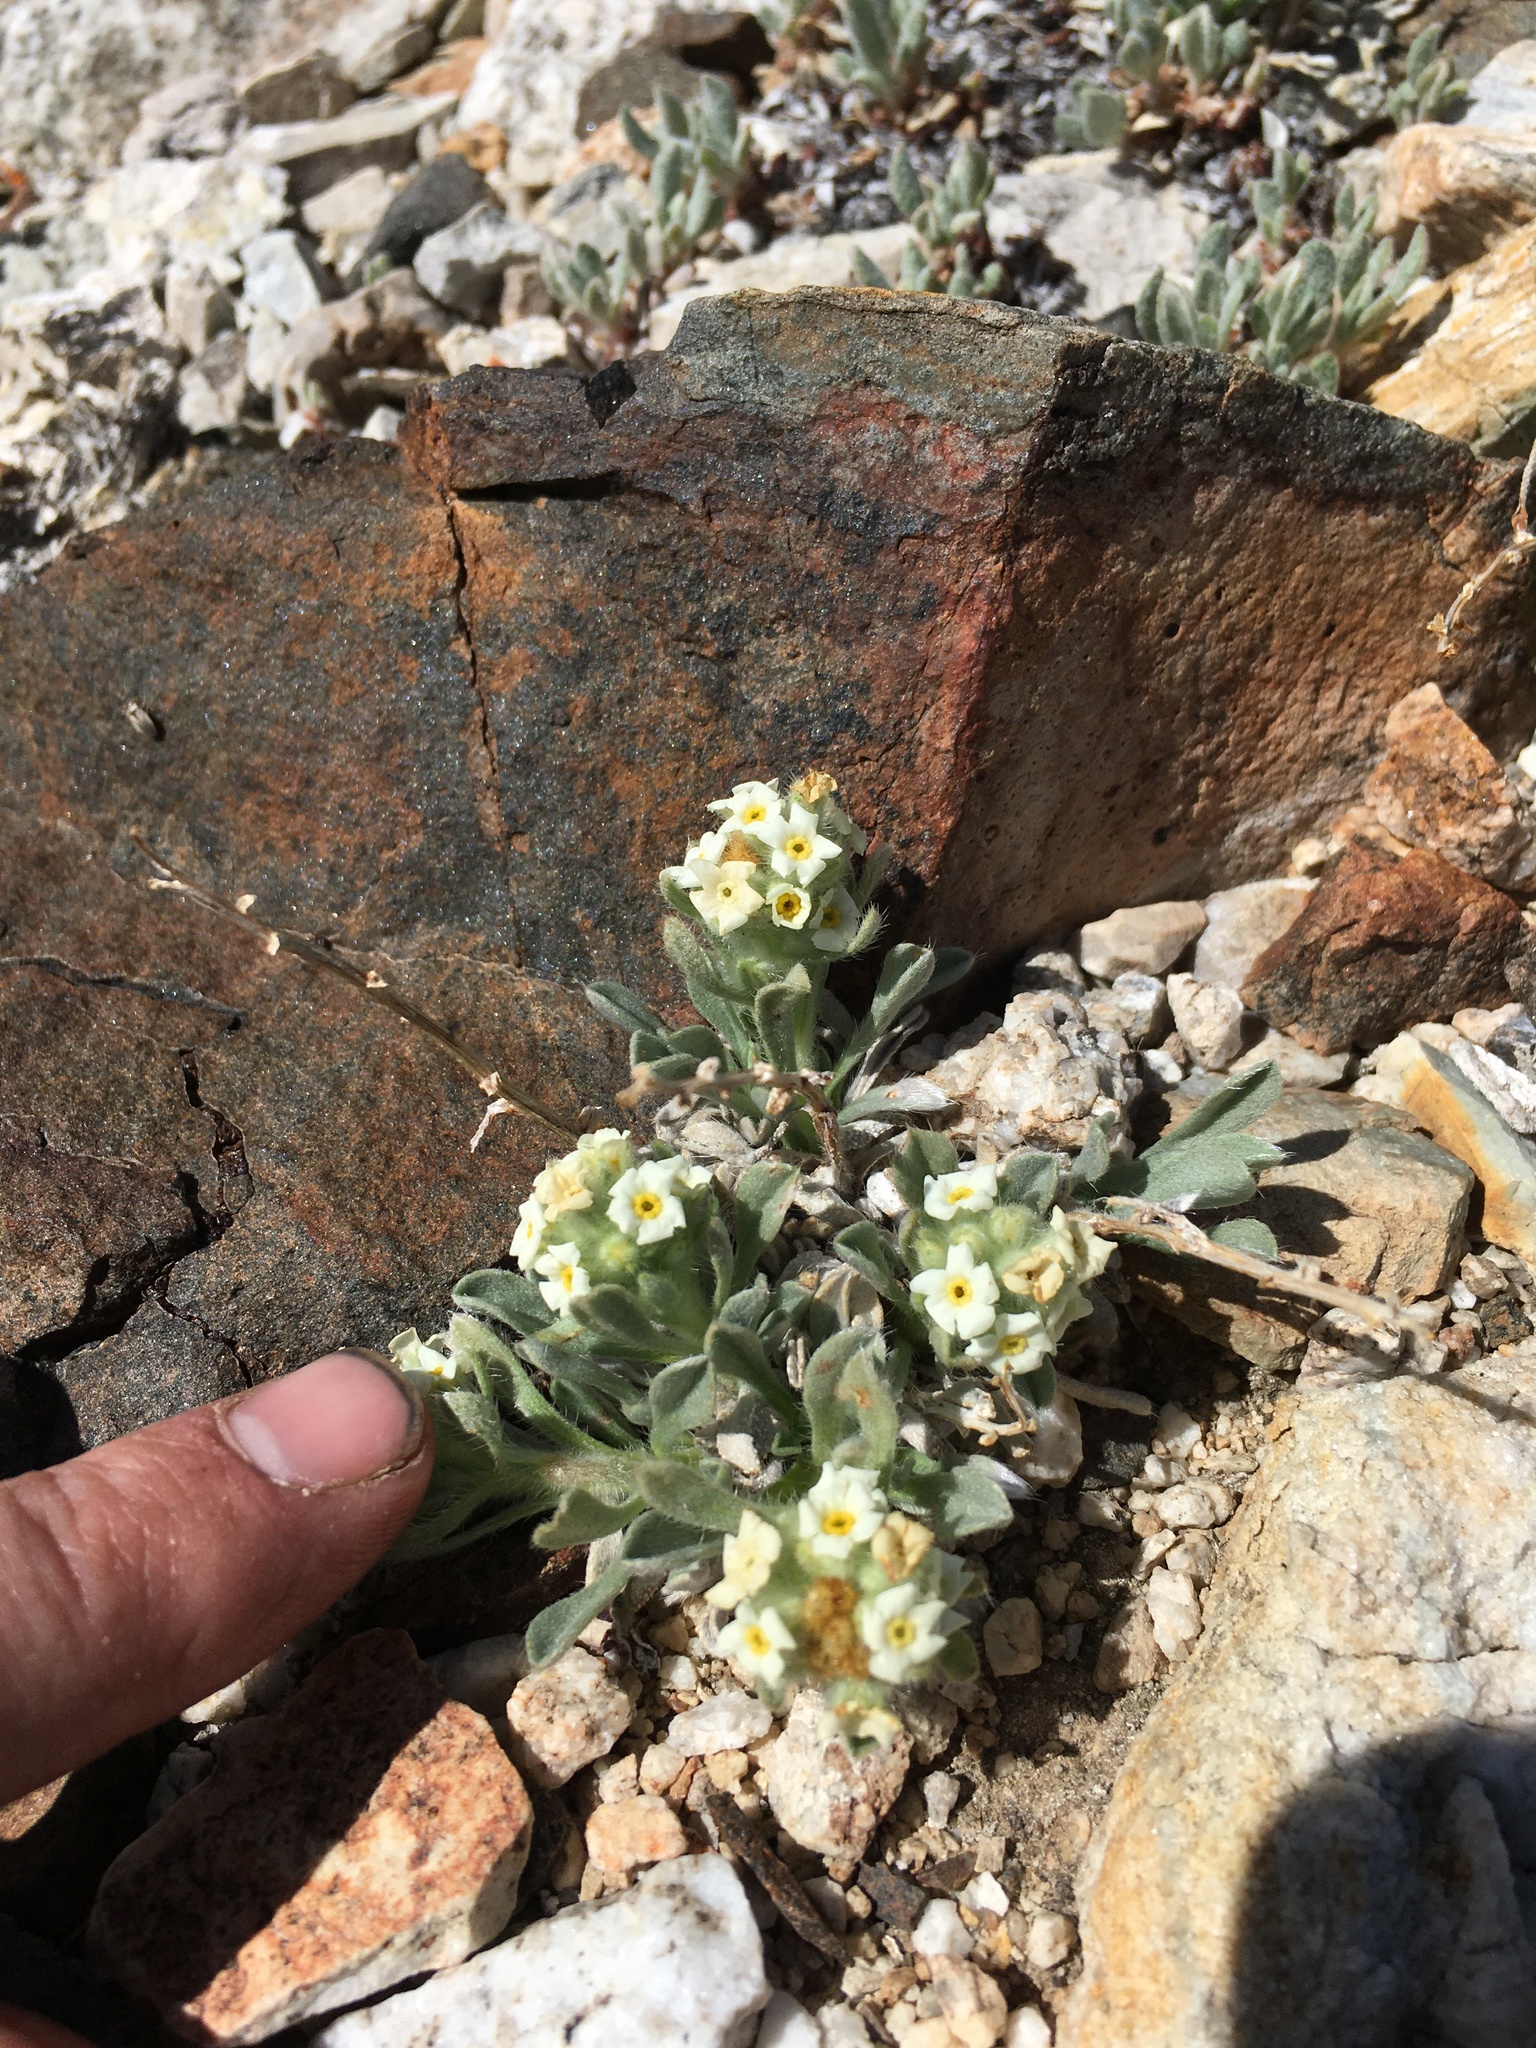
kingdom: Plantae
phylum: Tracheophyta
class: Magnoliopsida
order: Boraginales
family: Boraginaceae
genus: Oreocarya
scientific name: Oreocarya humilis
